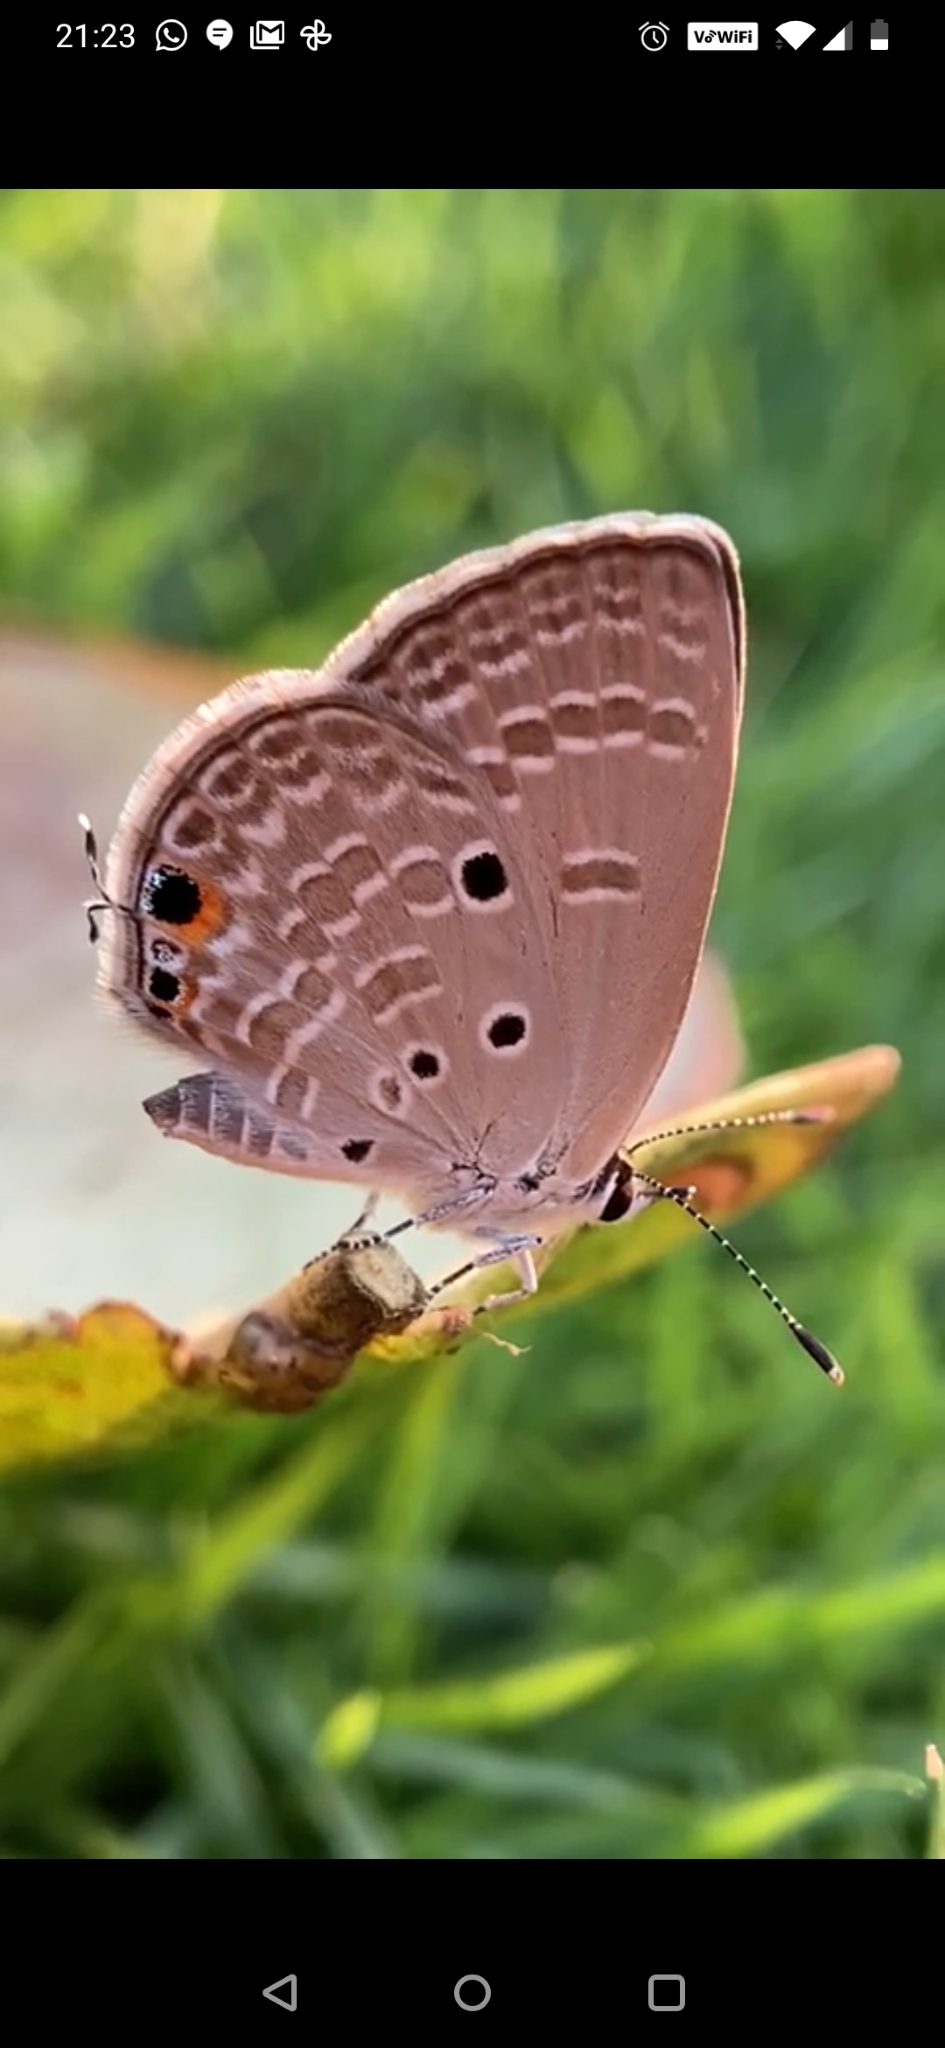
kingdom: Animalia
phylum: Arthropoda
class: Insecta
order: Lepidoptera
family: Lycaenidae
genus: Luthrodes
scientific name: Luthrodes pandava
